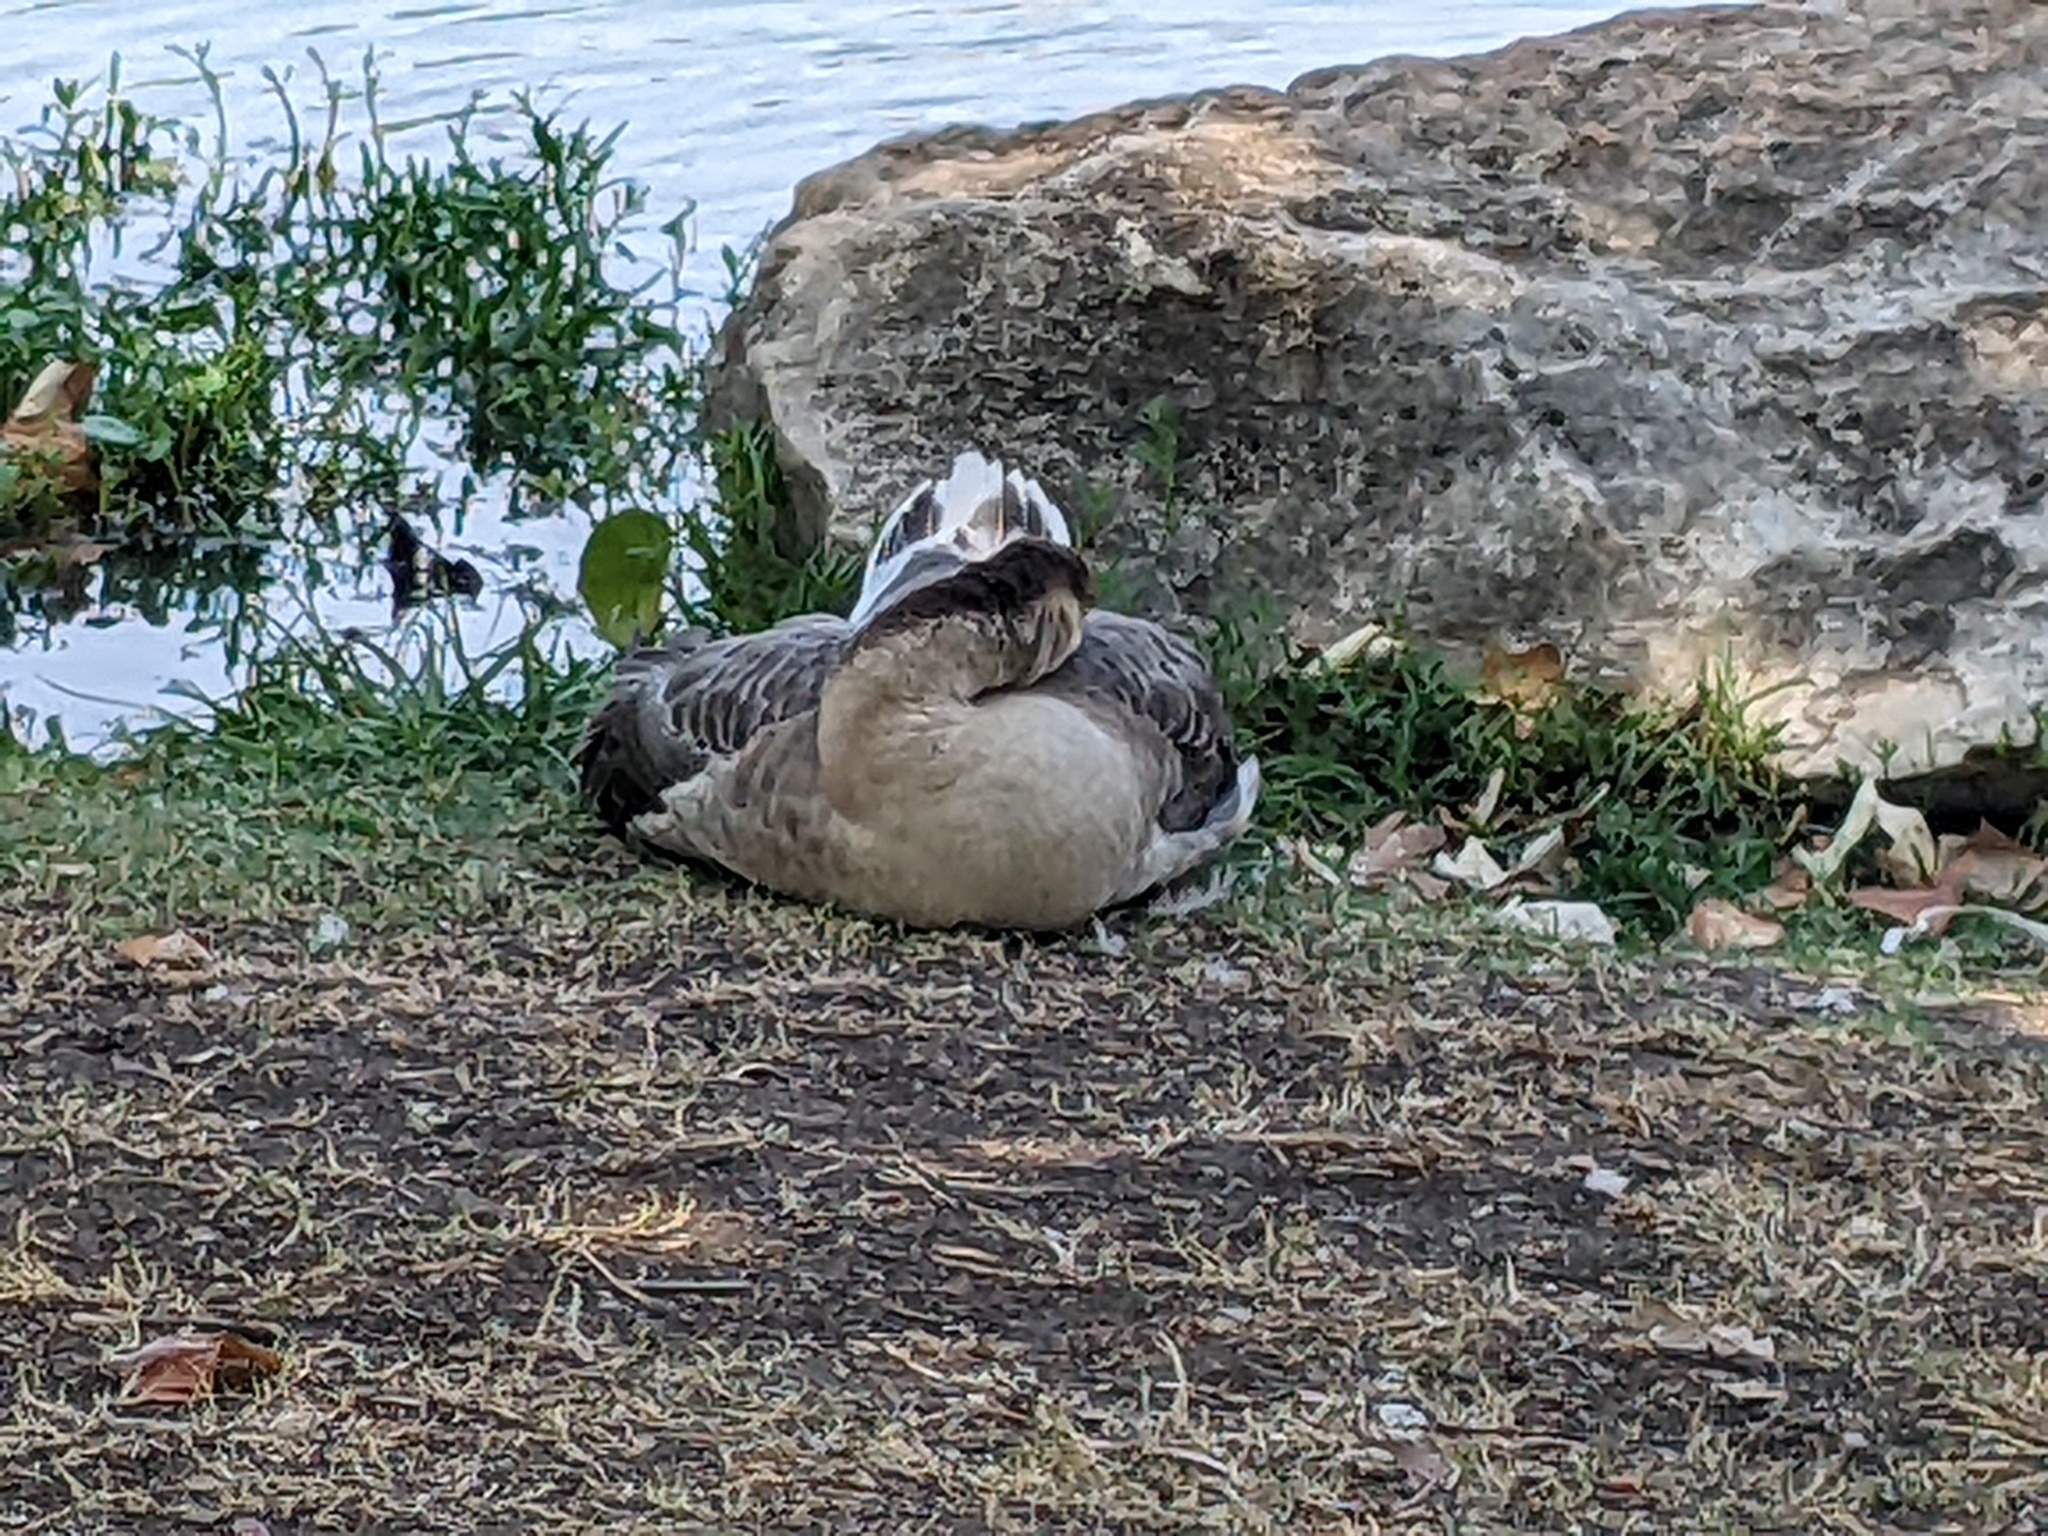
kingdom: Animalia
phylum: Chordata
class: Aves
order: Anseriformes
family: Anatidae
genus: Anser
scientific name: Anser cygnoides
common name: Swan goose
